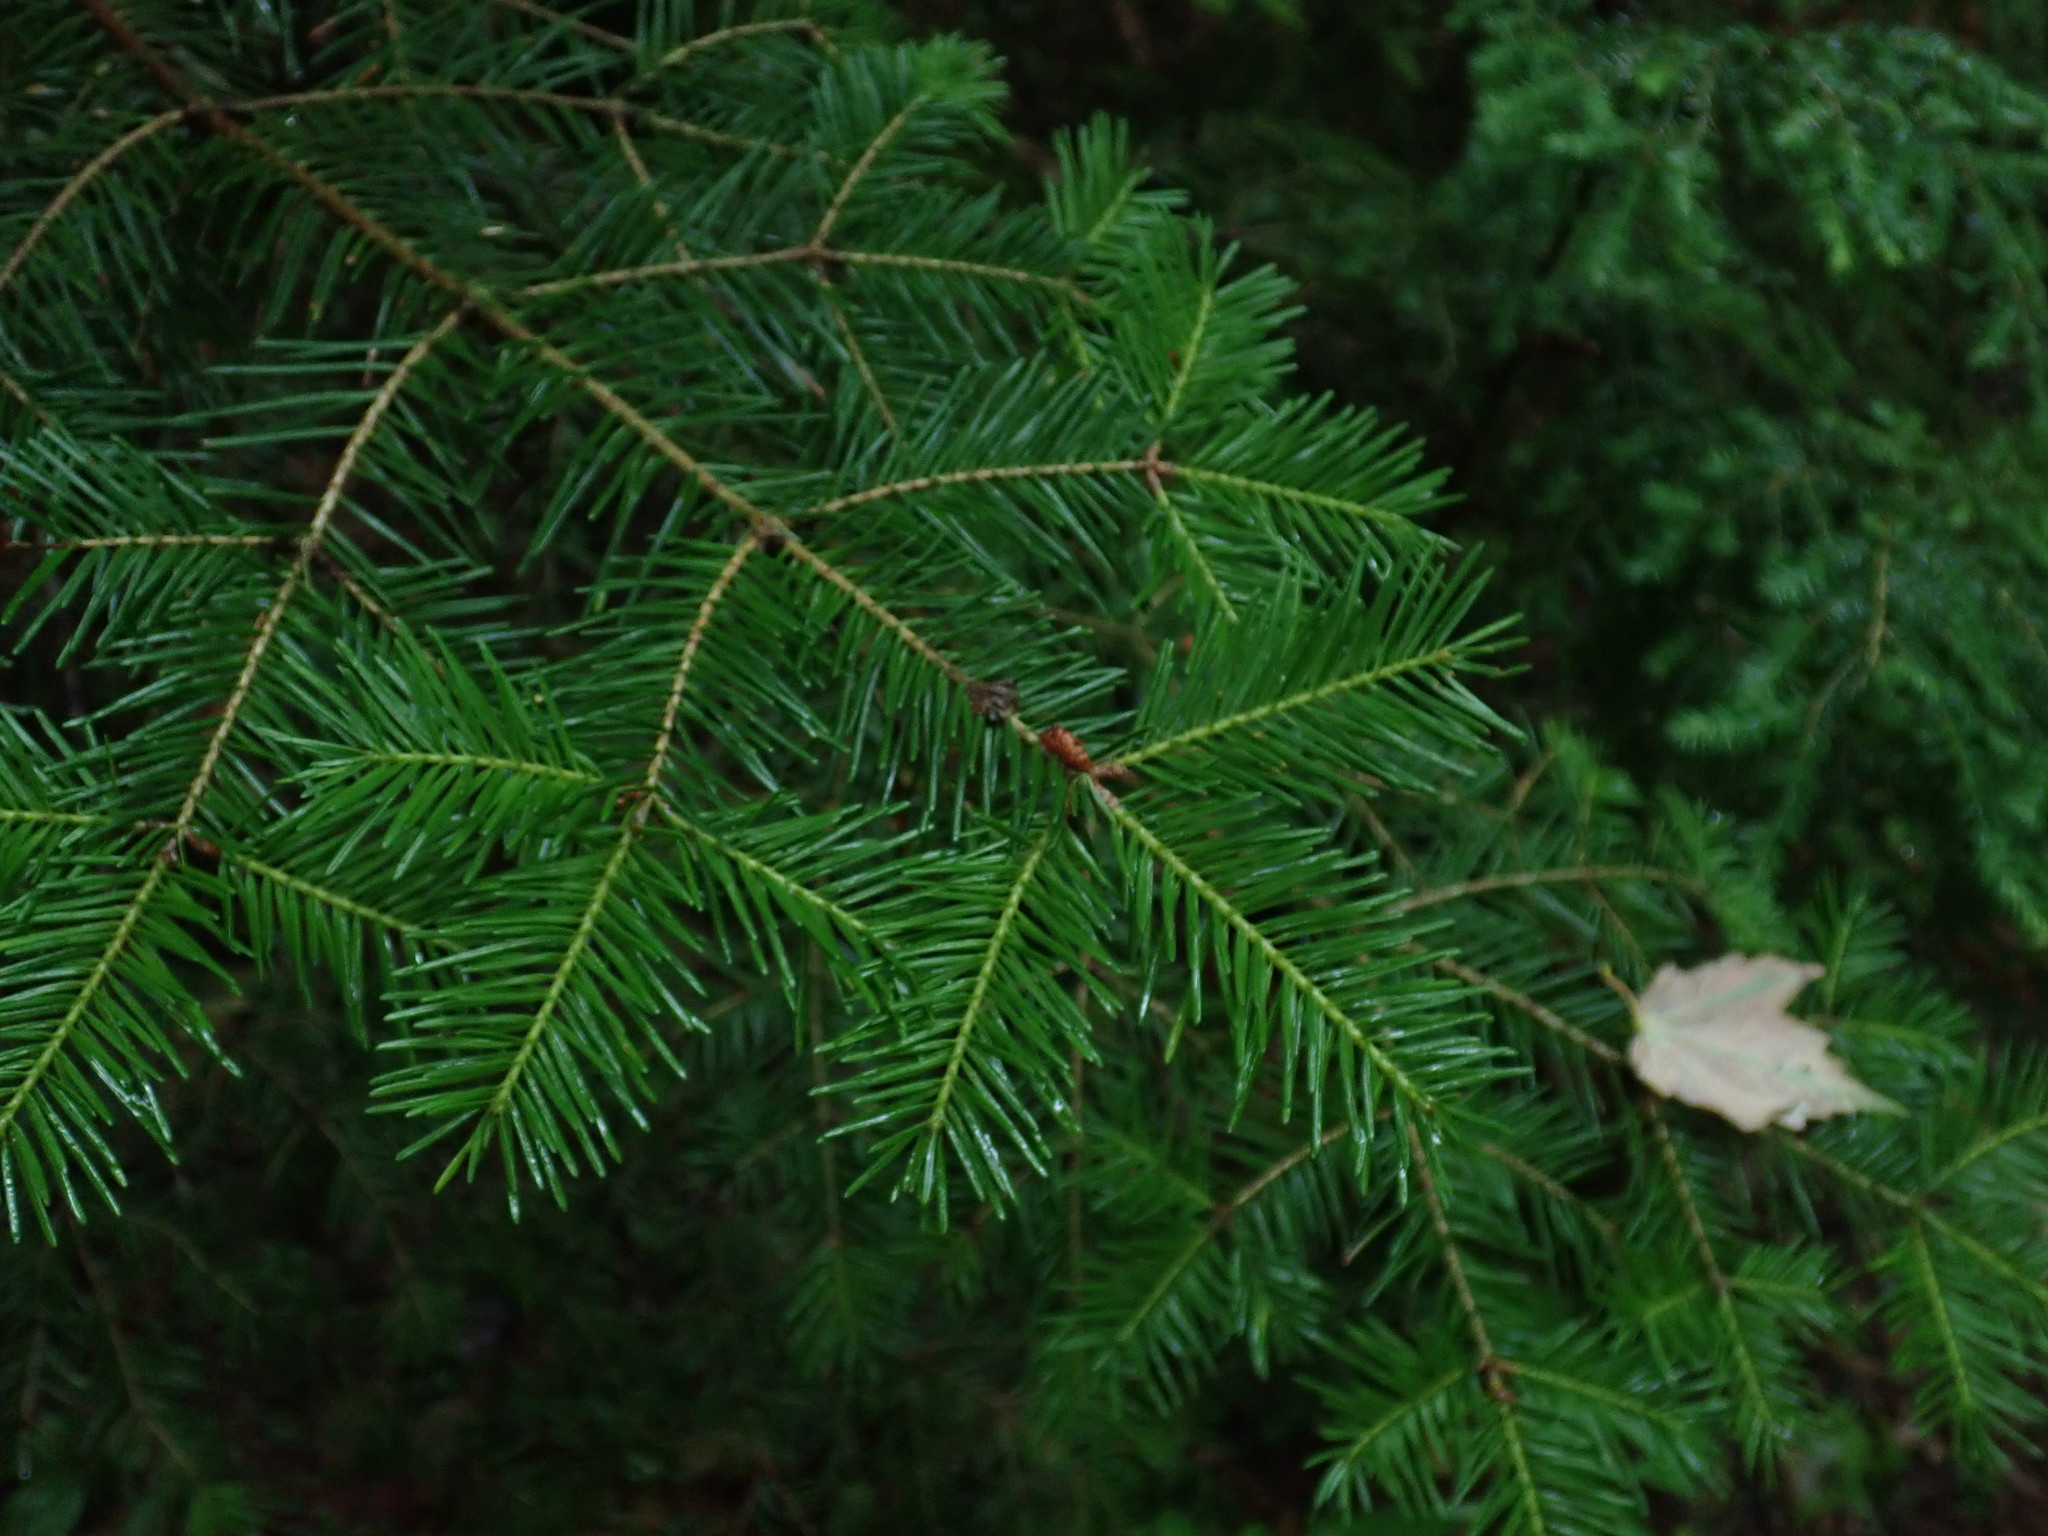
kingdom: Plantae
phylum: Tracheophyta
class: Pinopsida
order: Pinales
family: Pinaceae
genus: Abies
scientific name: Abies balsamea
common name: Balsam fir
